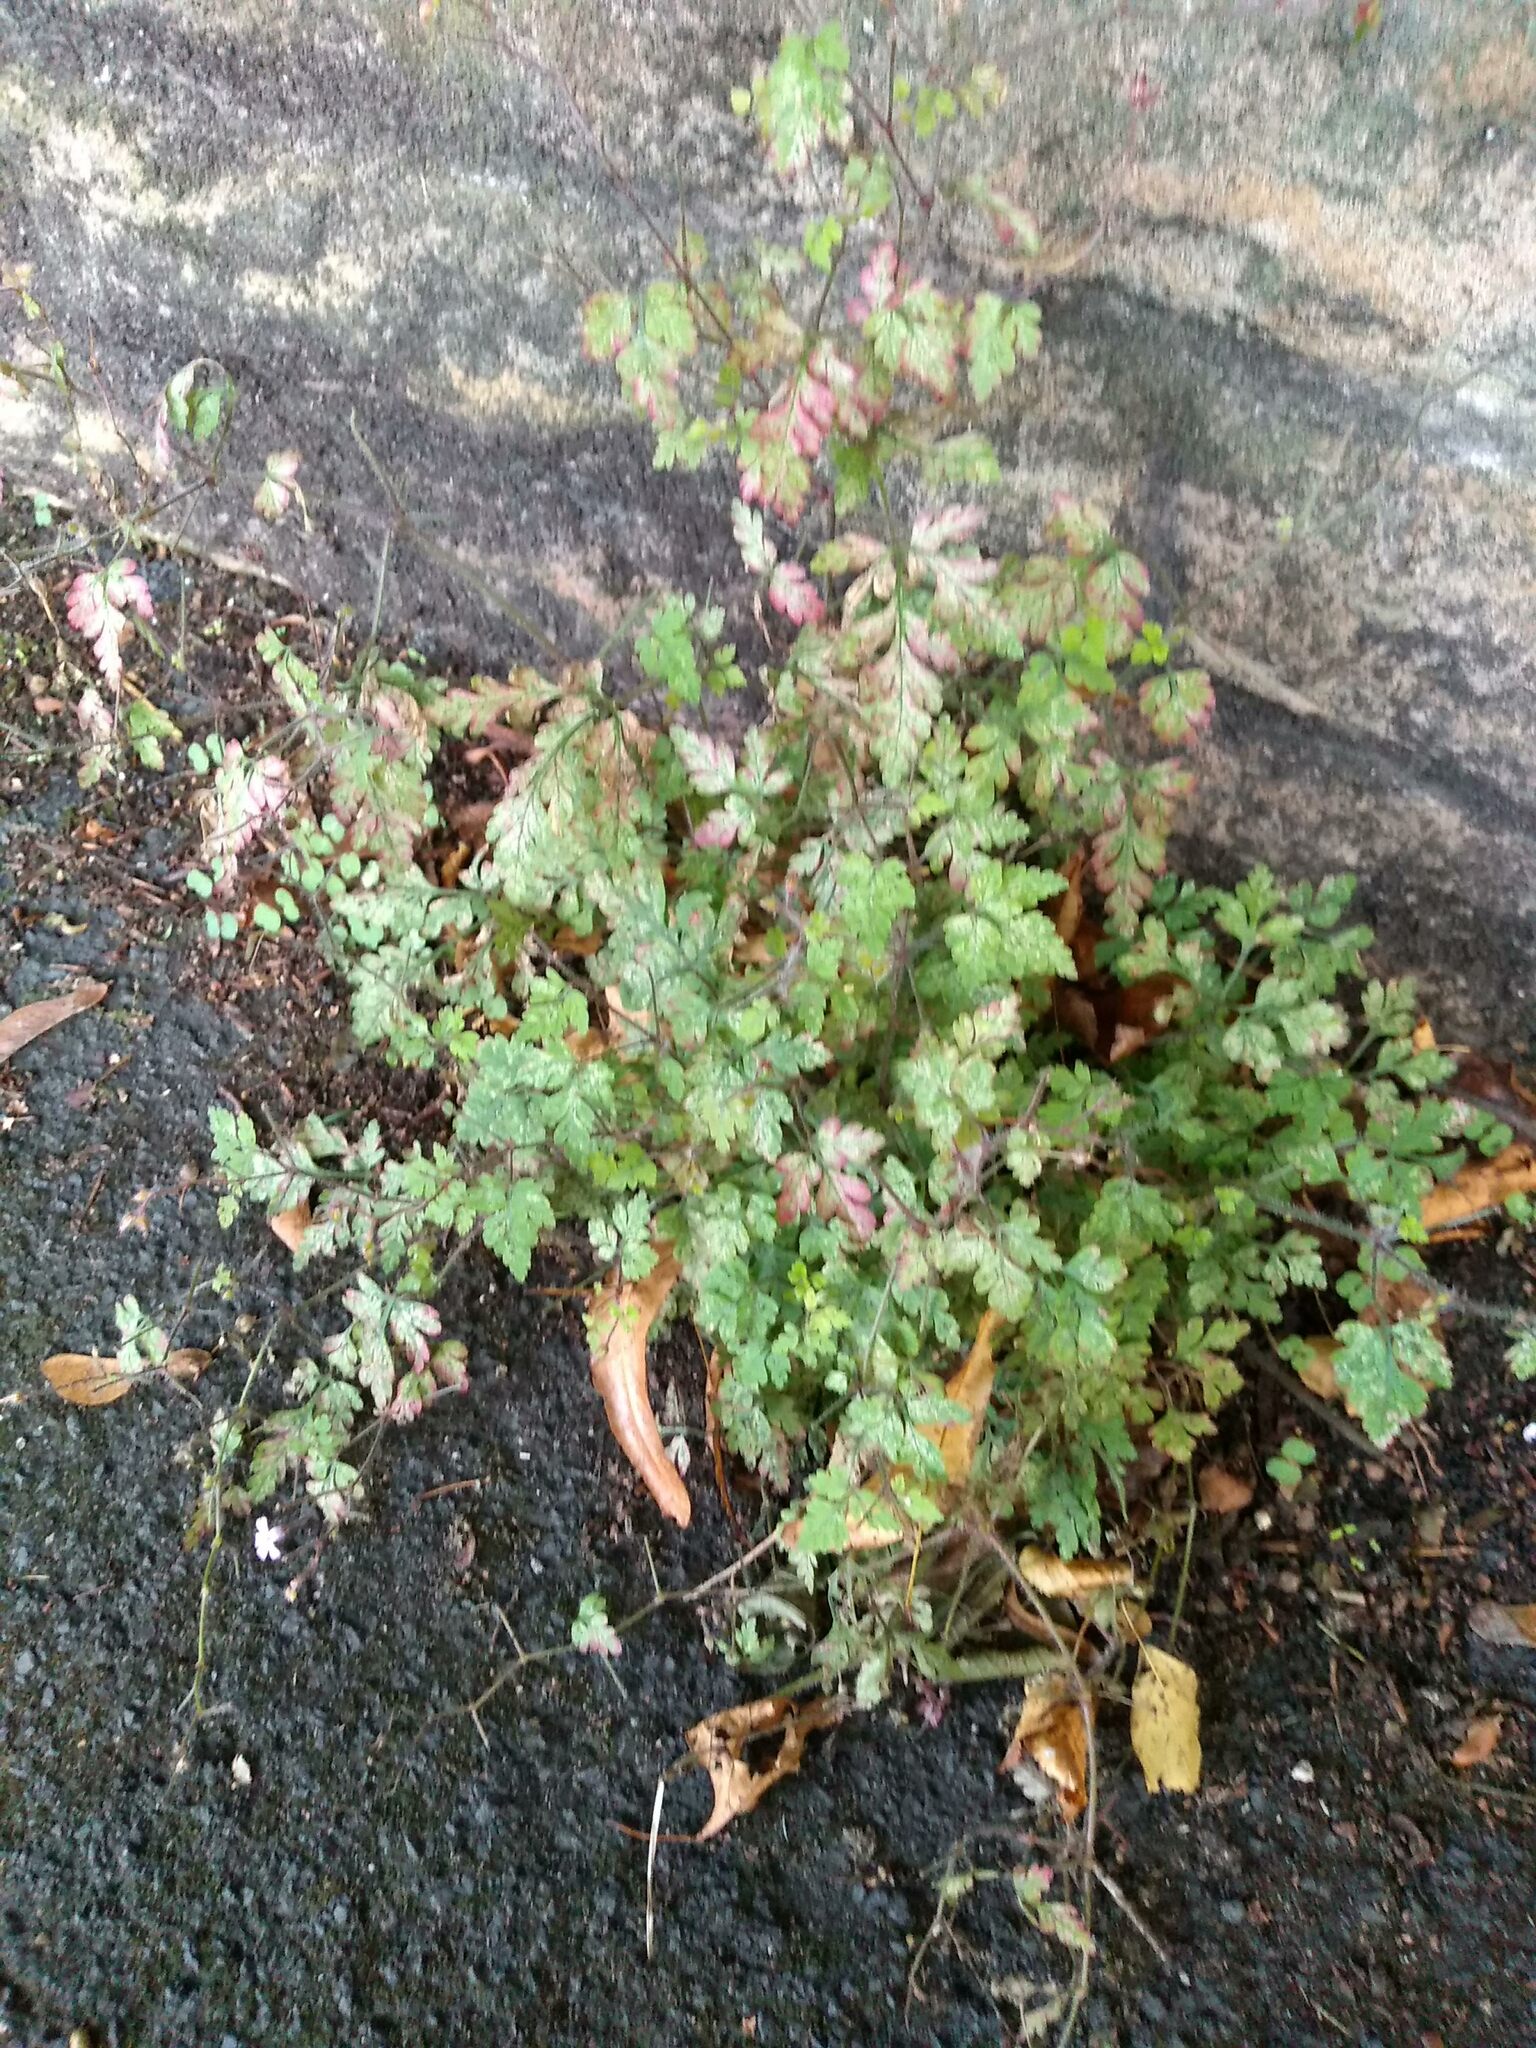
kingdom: Plantae
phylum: Tracheophyta
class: Magnoliopsida
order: Geraniales
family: Geraniaceae
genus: Geranium
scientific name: Geranium robertianum
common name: Herb-robert
